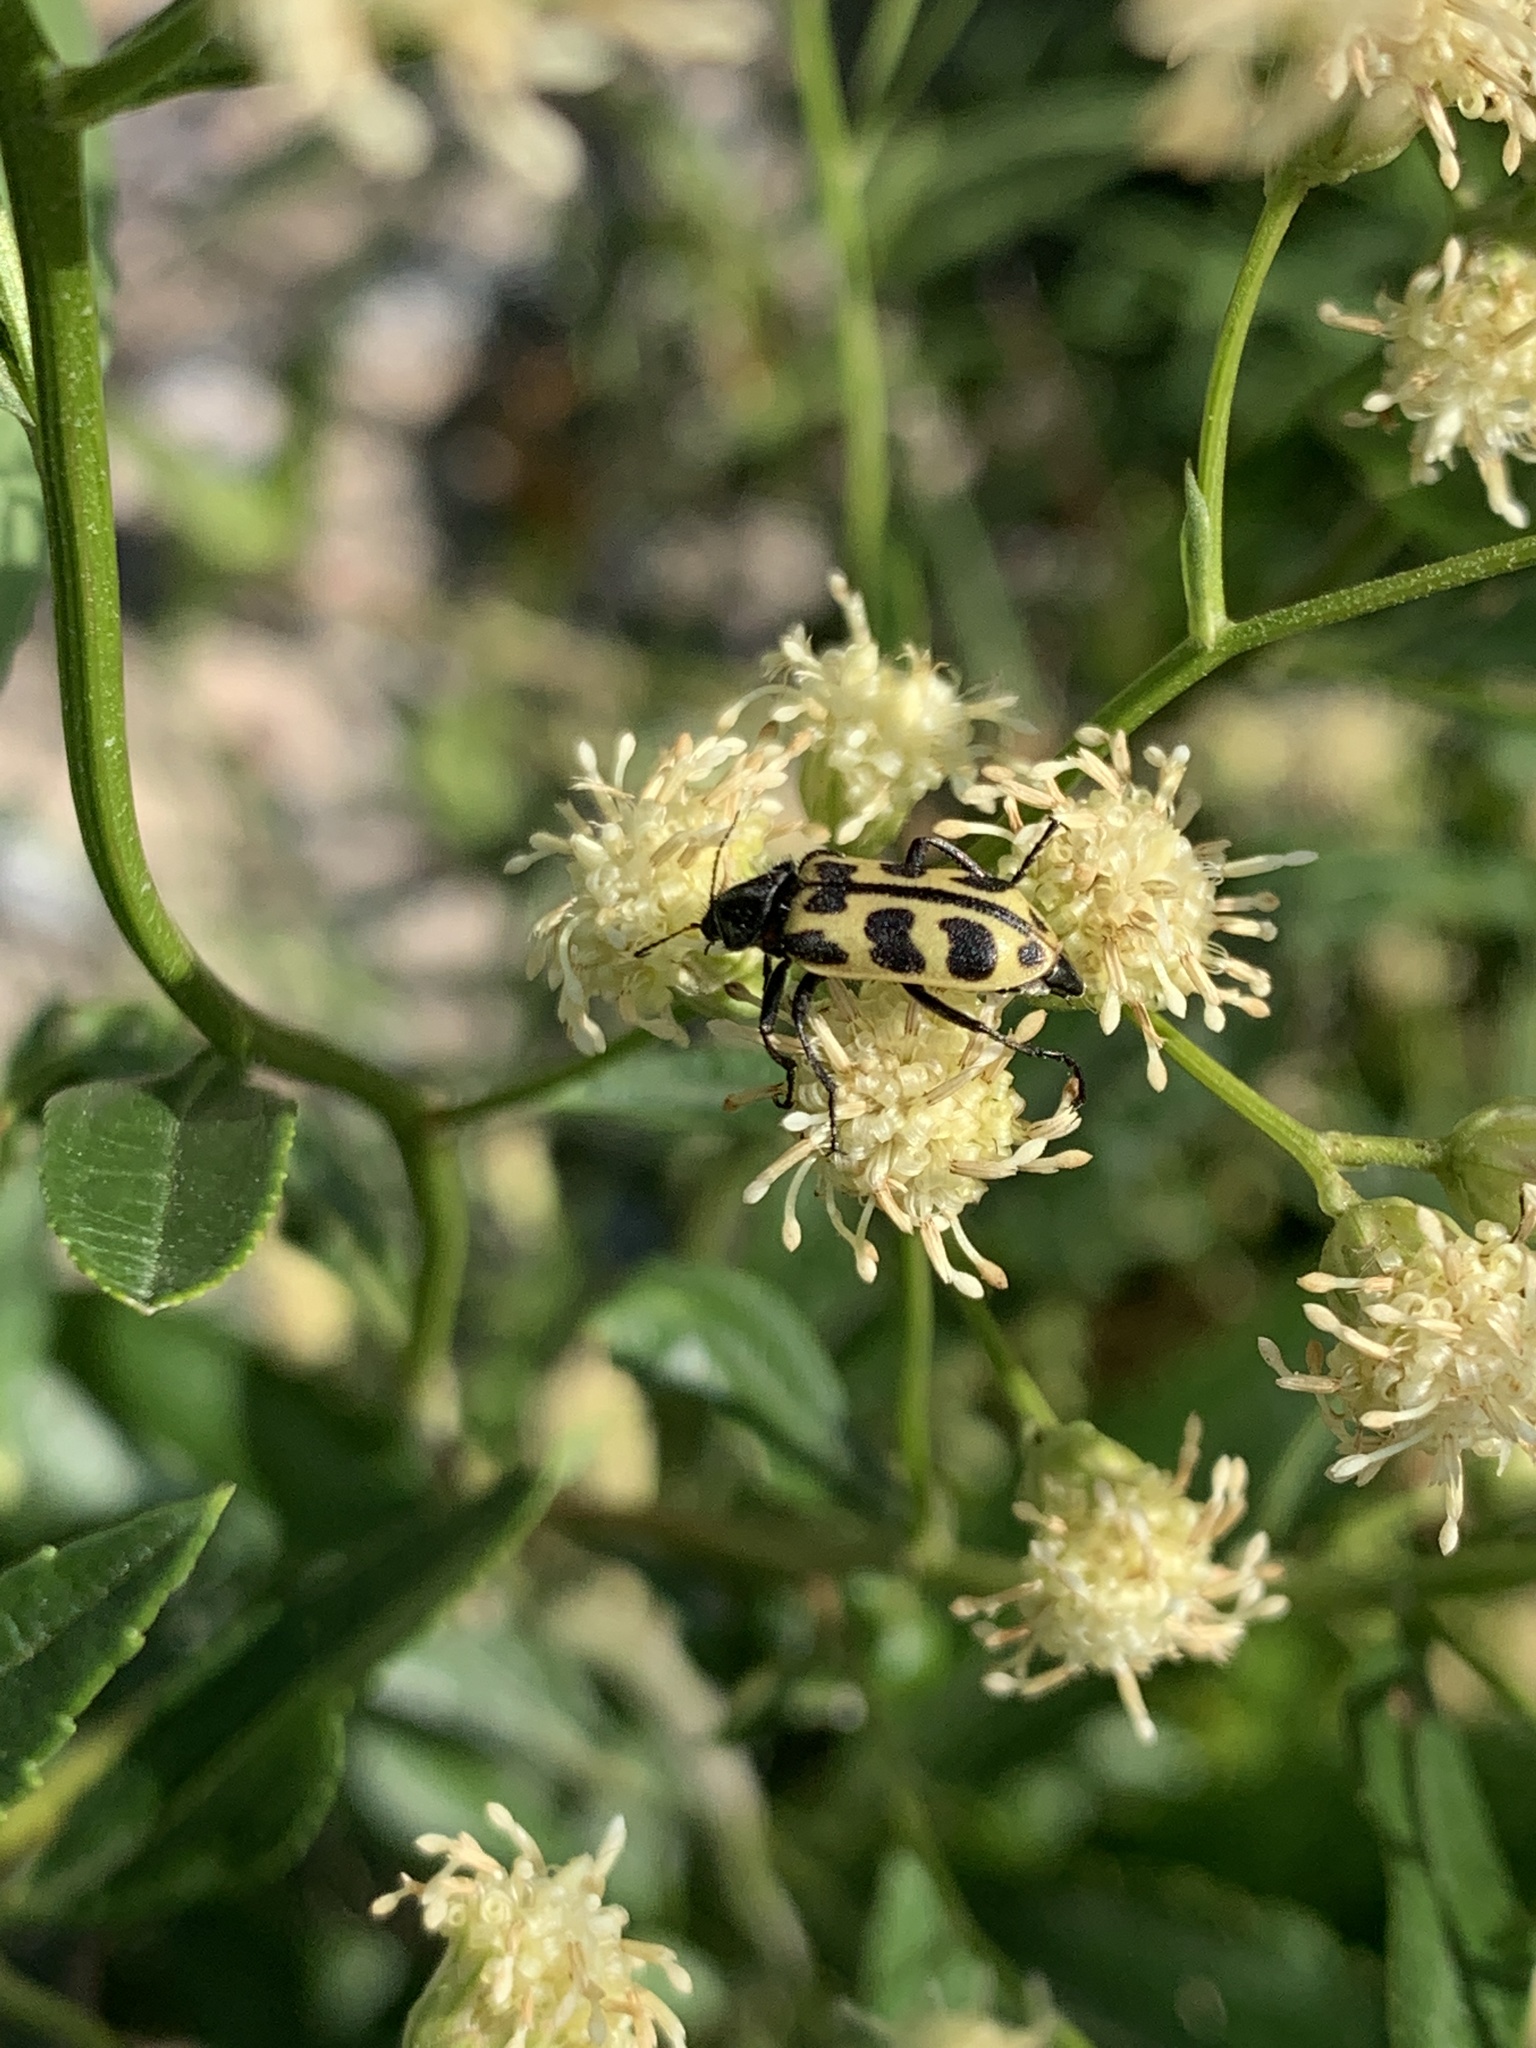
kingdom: Animalia
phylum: Arthropoda
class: Insecta
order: Coleoptera
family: Melyridae
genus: Astylus
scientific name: Astylus atromaculatus
